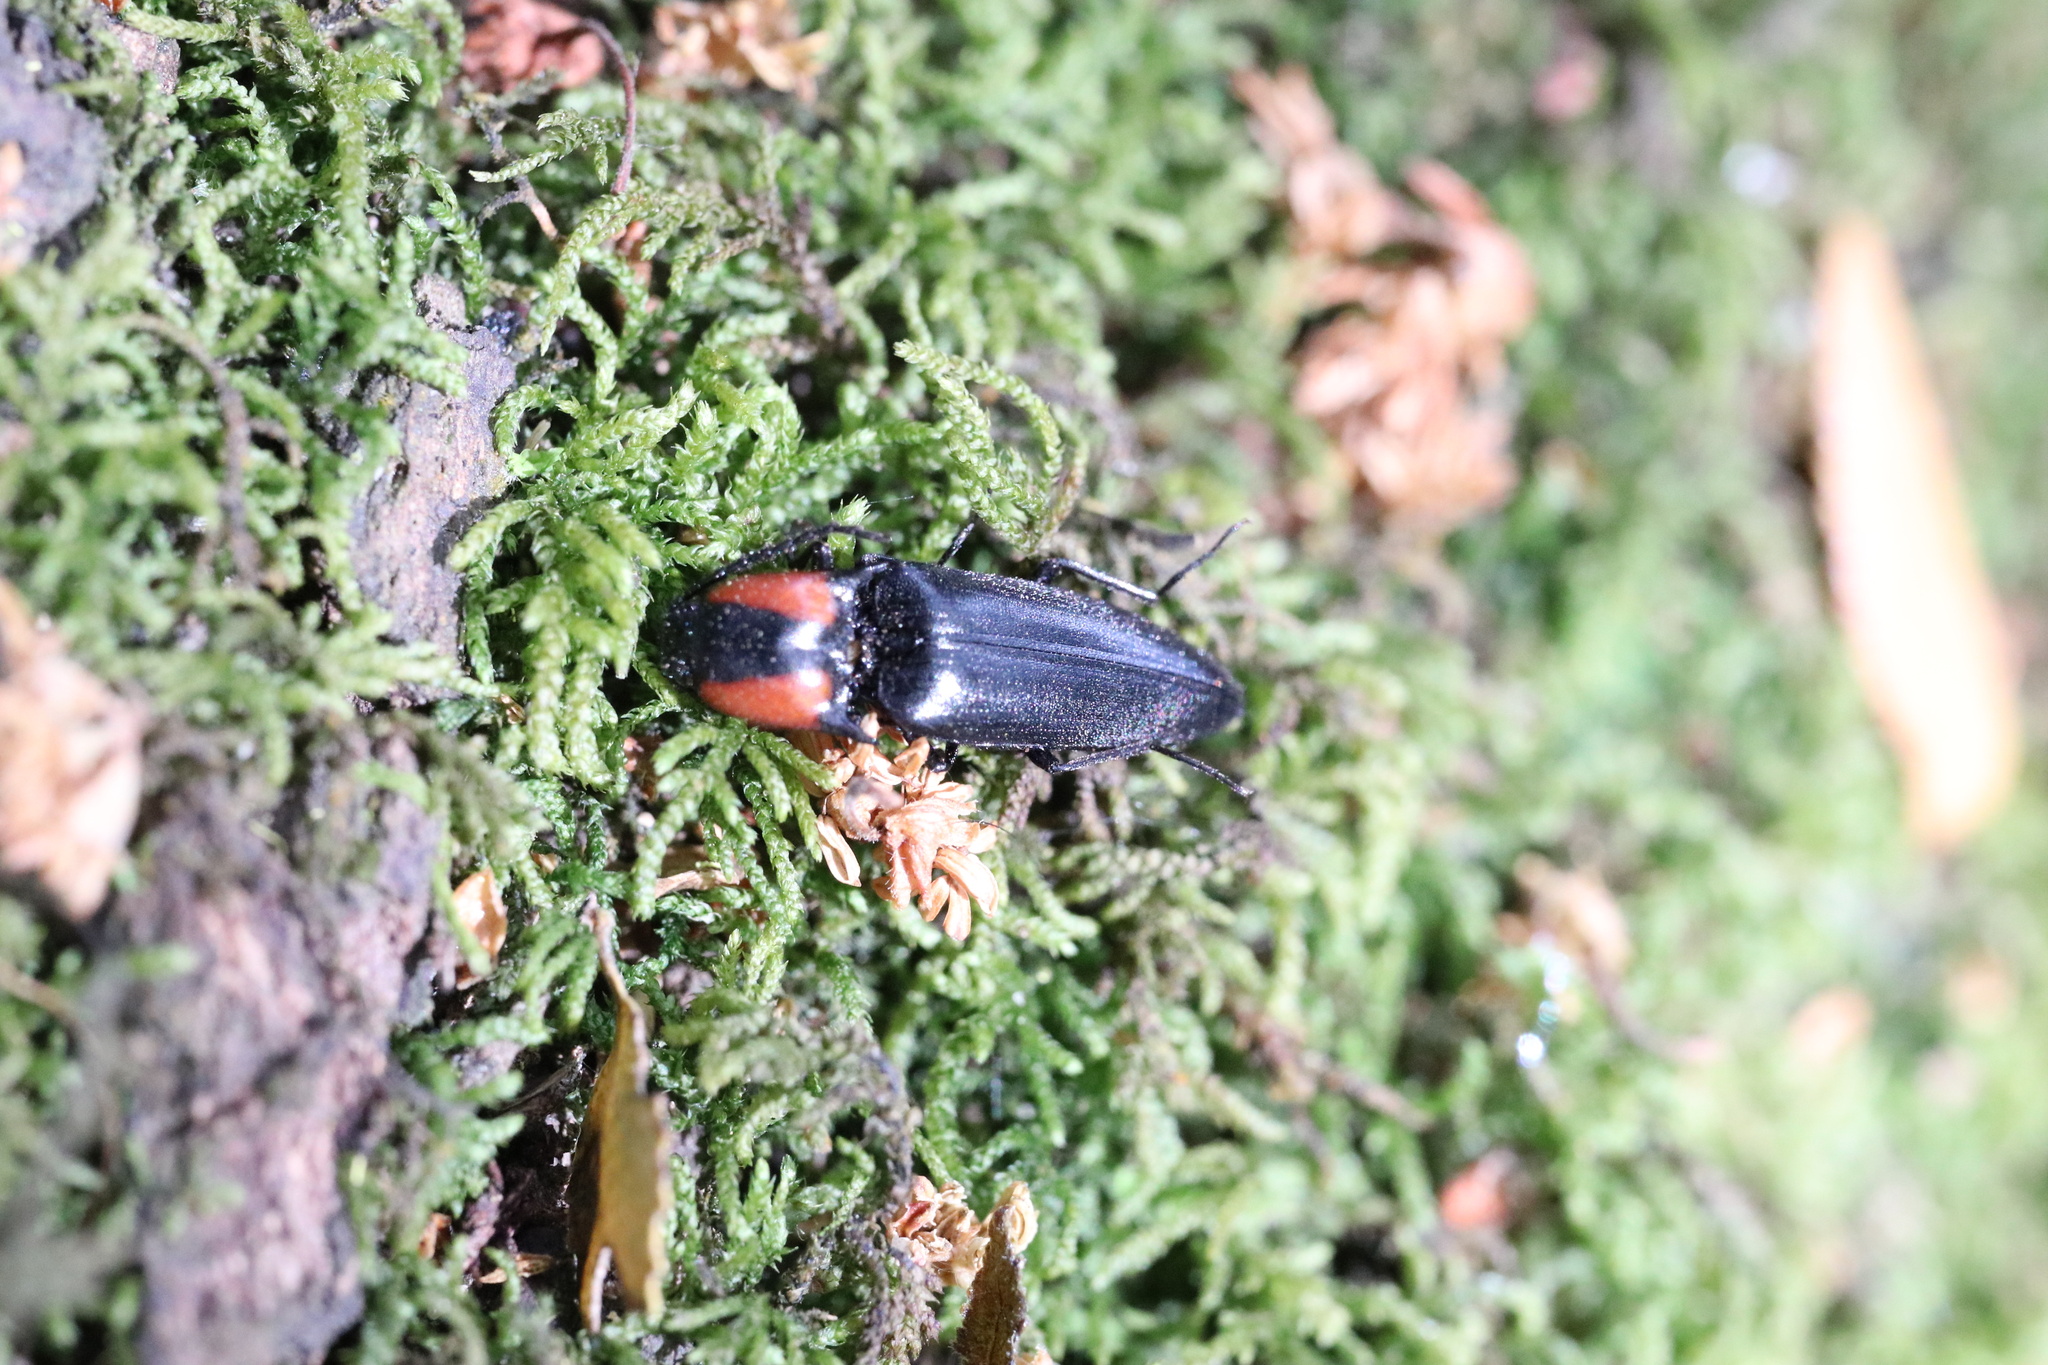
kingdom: Animalia
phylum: Arthropoda
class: Insecta
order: Coleoptera
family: Elateridae
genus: Elater
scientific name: Elater
